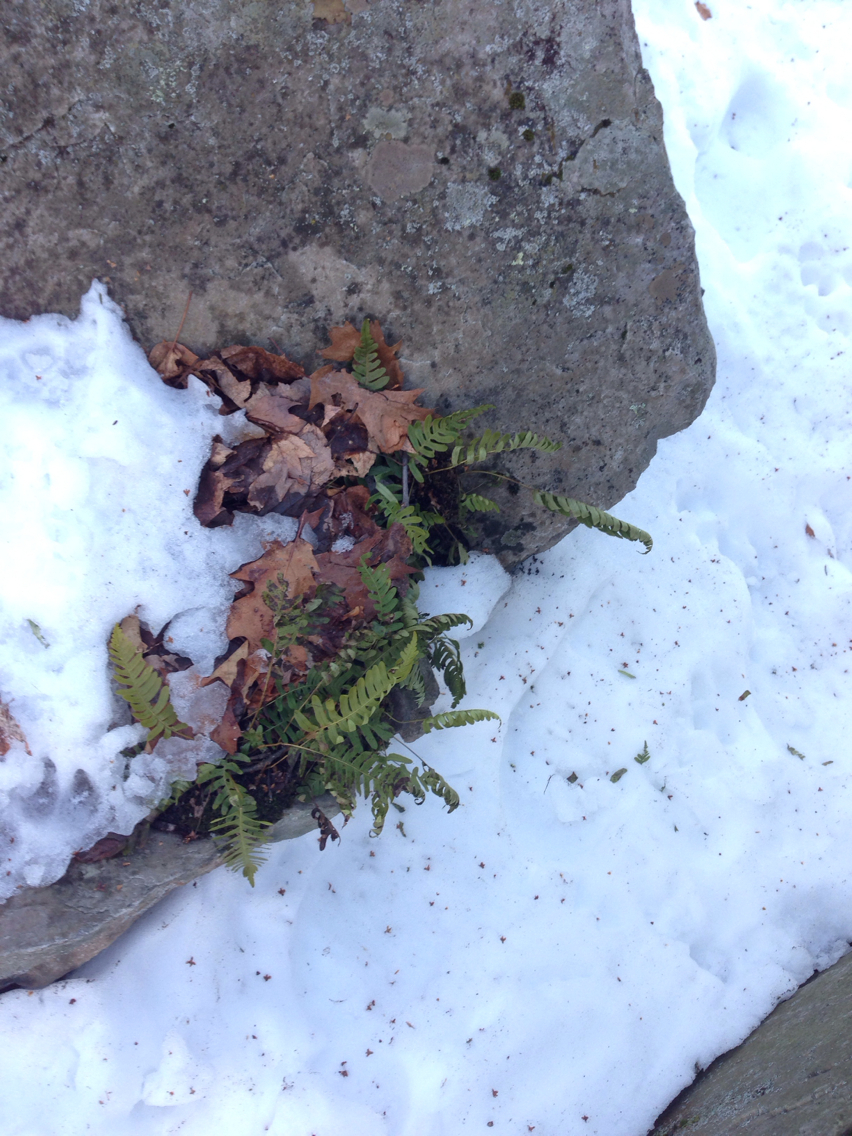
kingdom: Plantae
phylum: Tracheophyta
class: Polypodiopsida
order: Polypodiales
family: Polypodiaceae
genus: Polypodium
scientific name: Polypodium virginianum
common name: American wall fern
